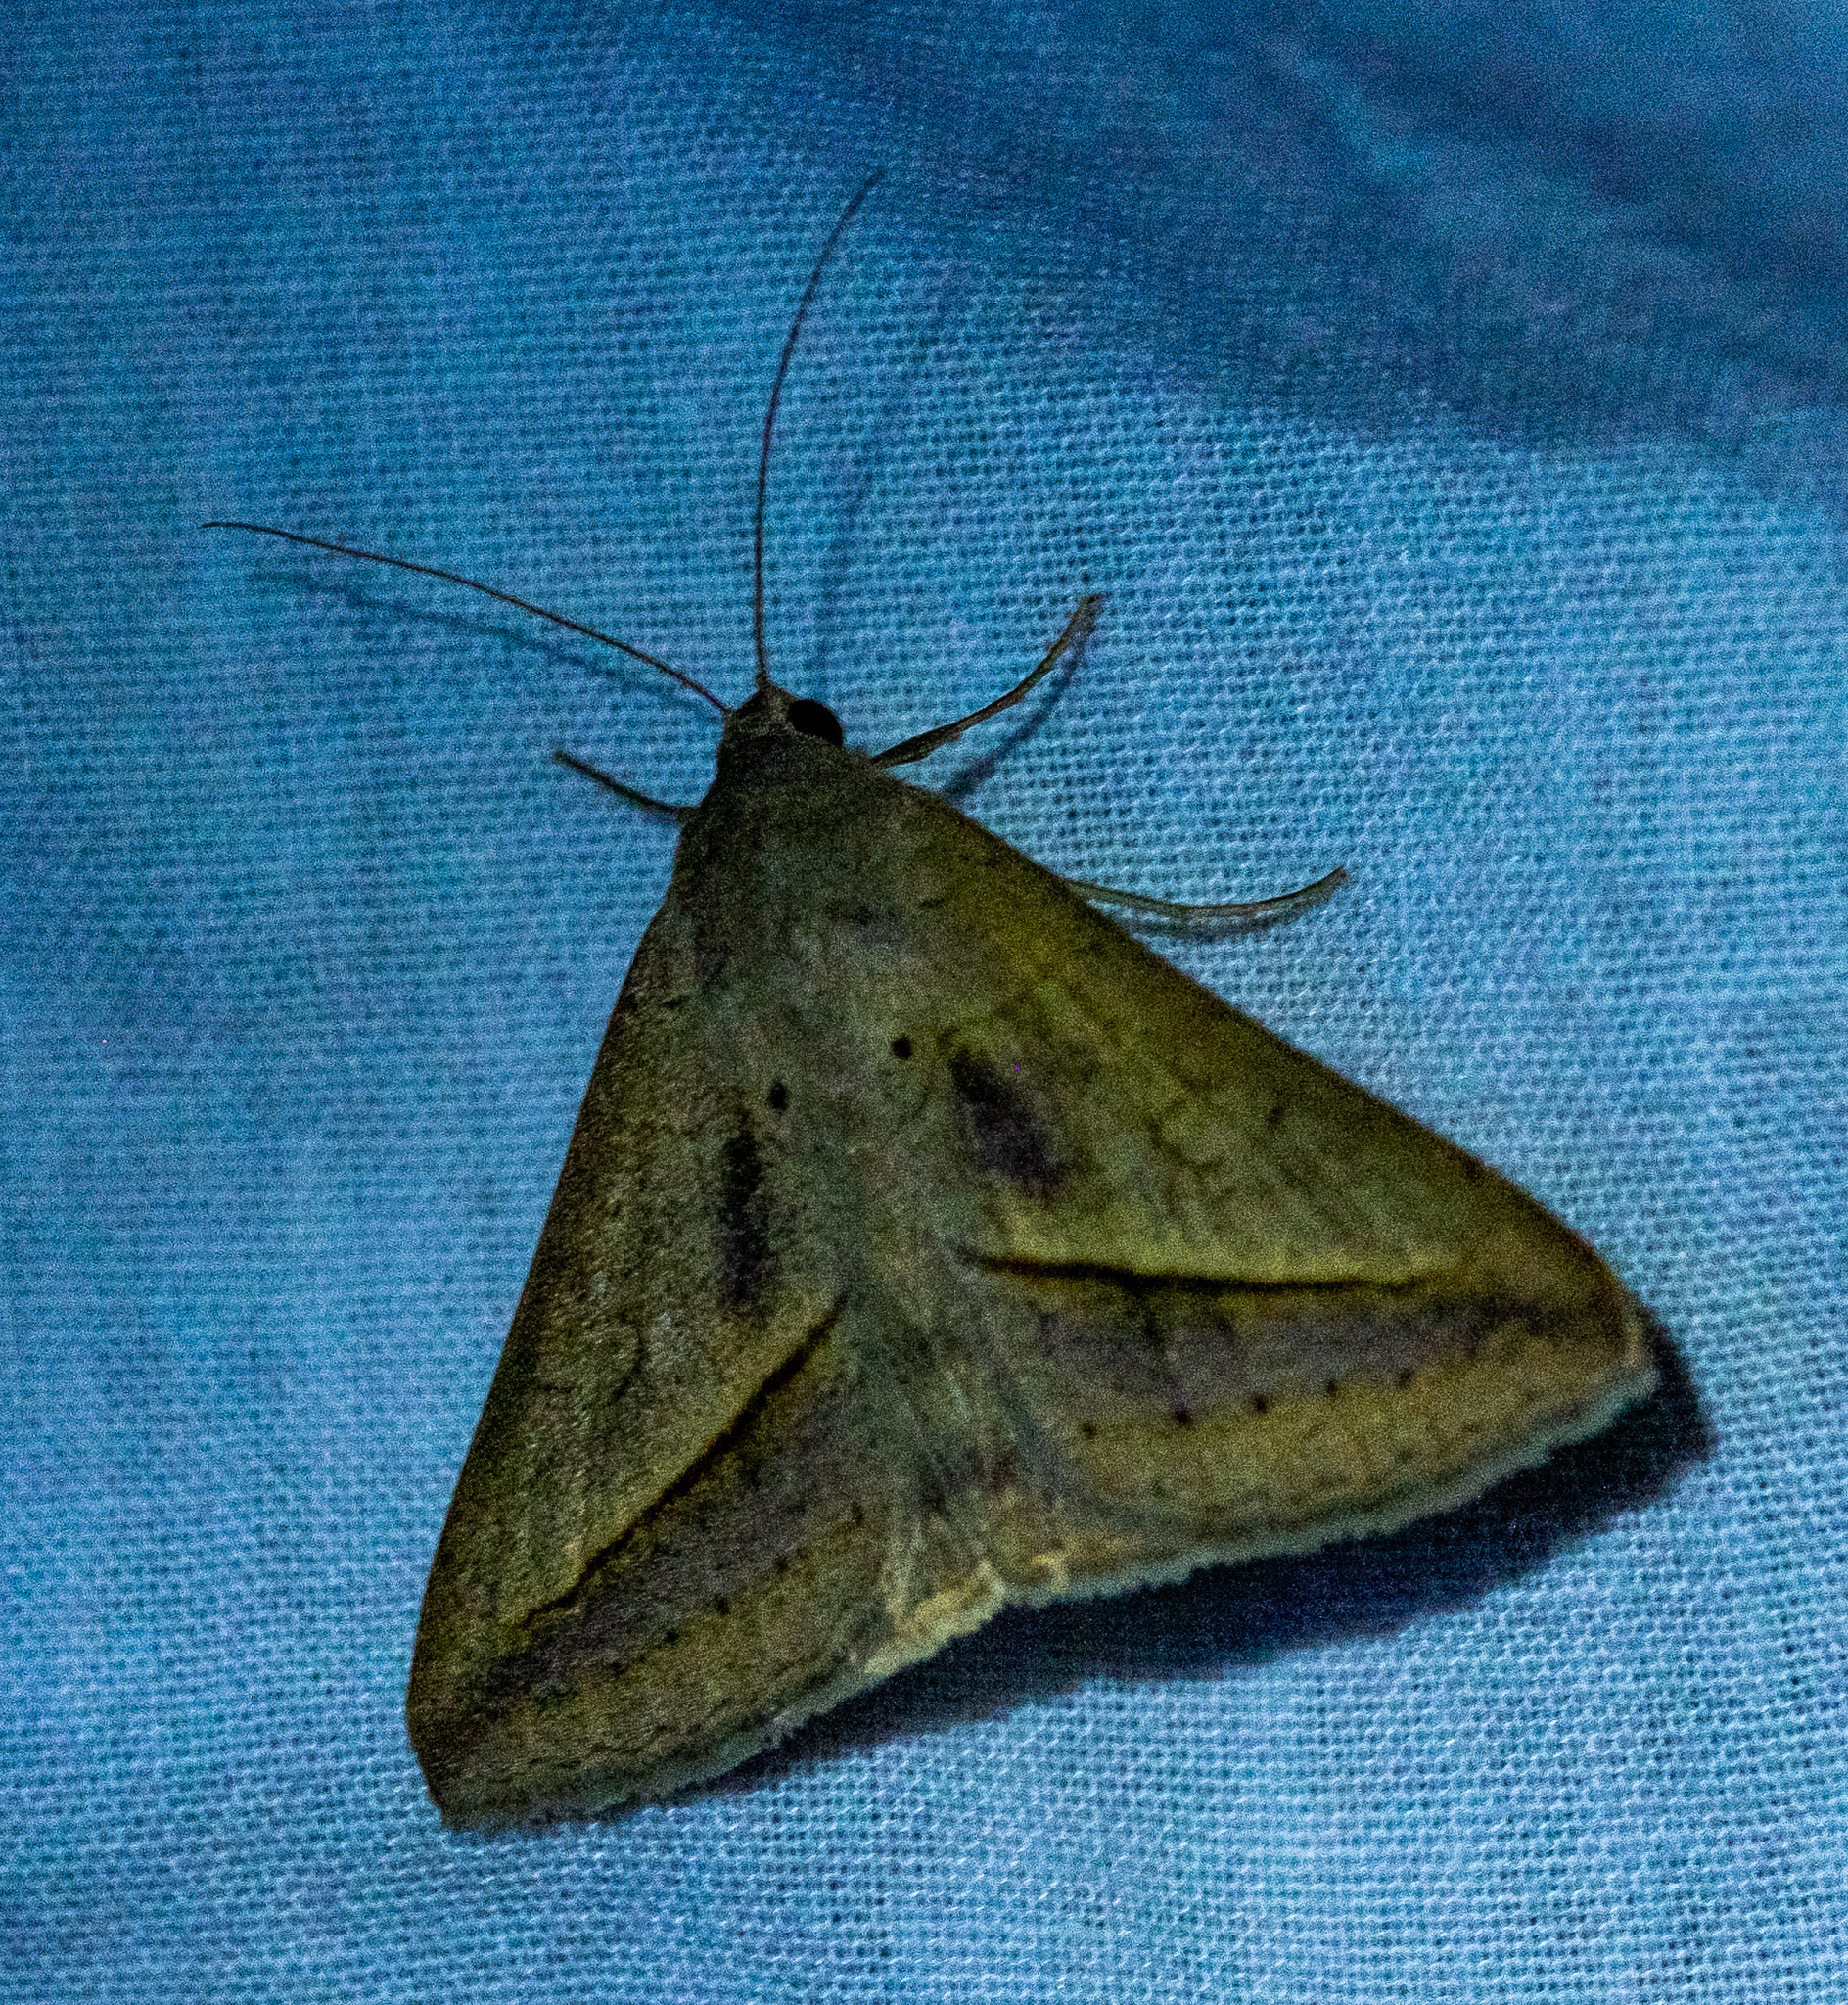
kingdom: Animalia
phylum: Arthropoda
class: Insecta
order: Lepidoptera
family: Erebidae
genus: Mocis
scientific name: Mocis frugalis
